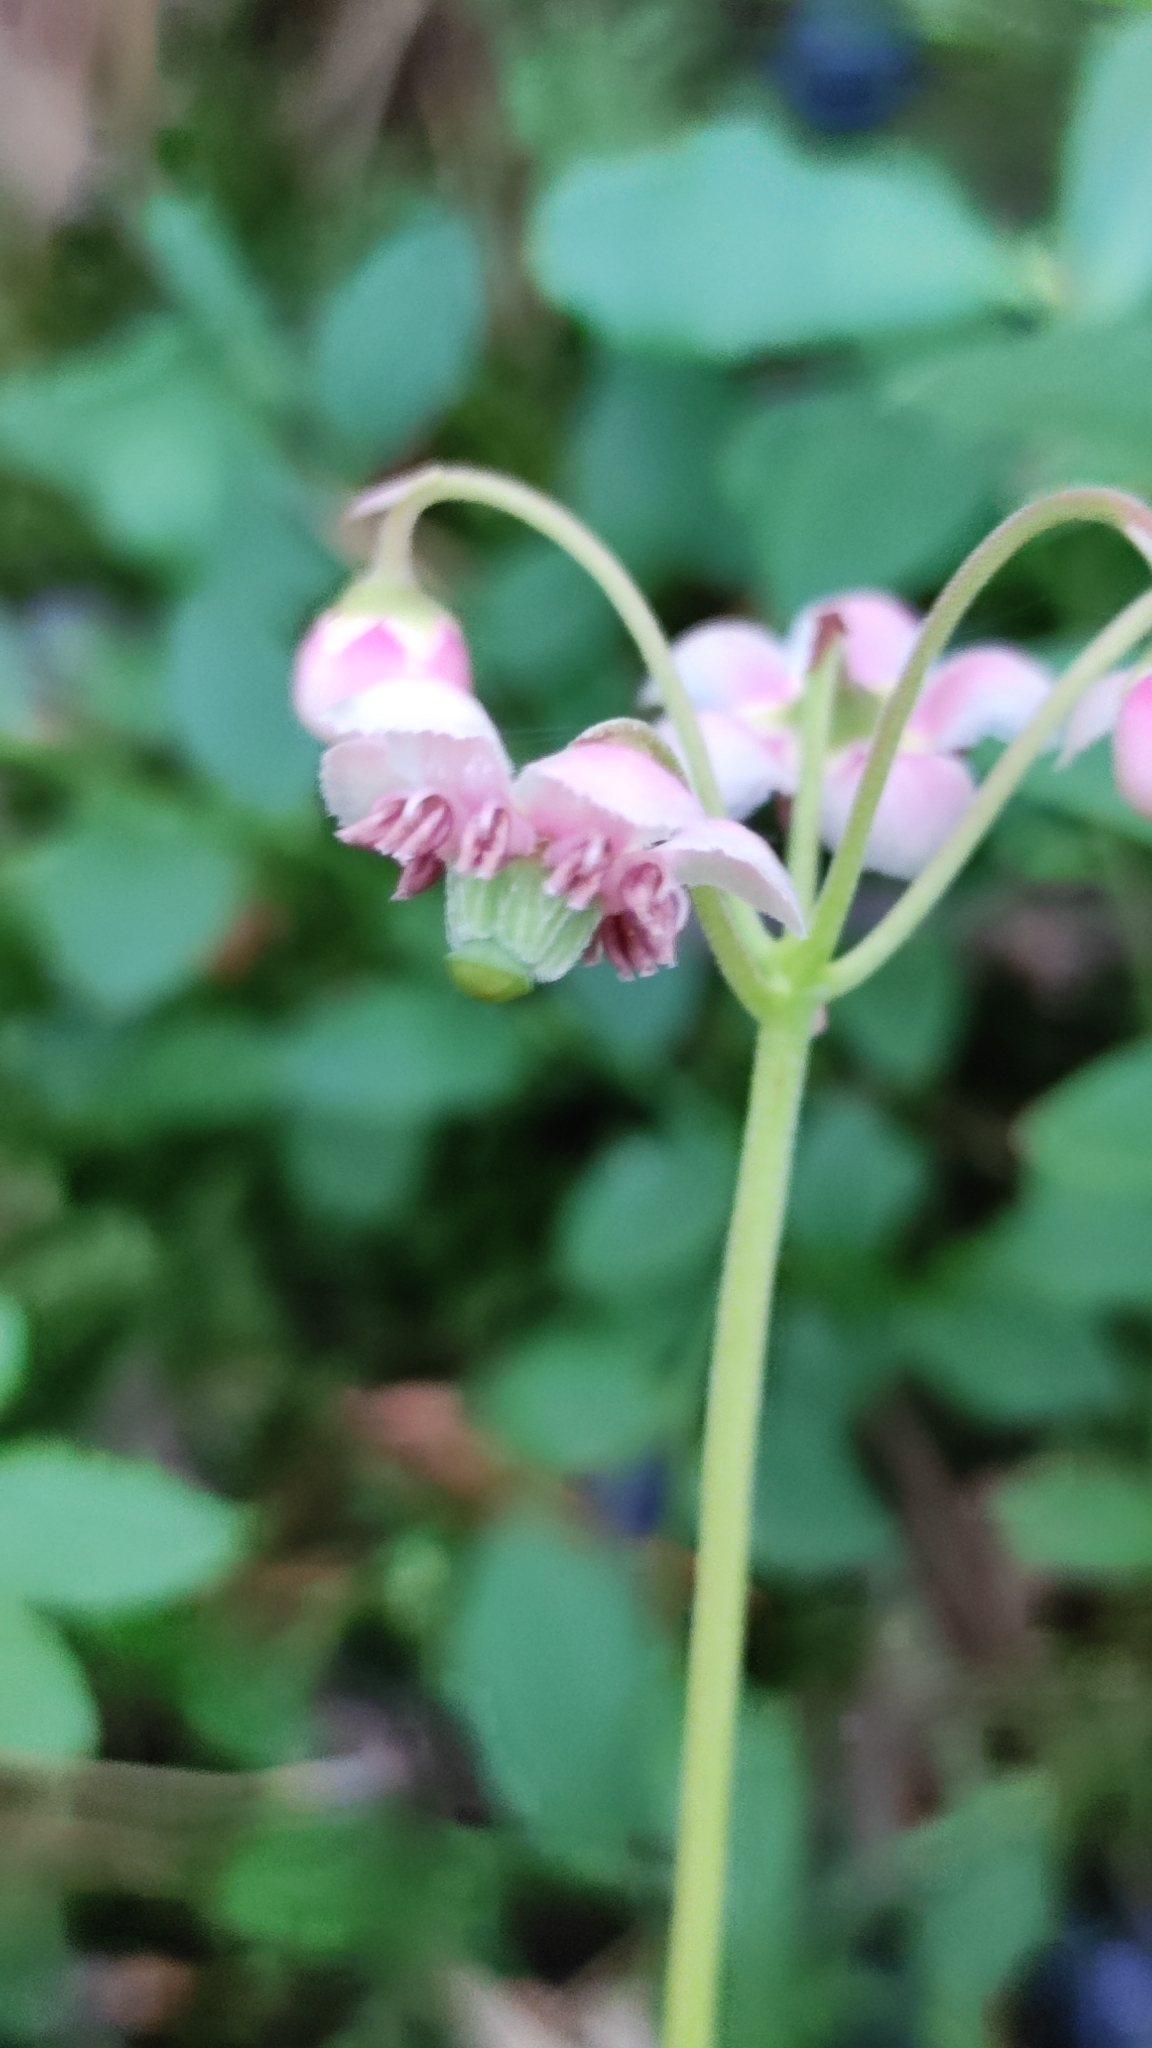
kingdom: Plantae
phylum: Tracheophyta
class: Magnoliopsida
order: Ericales
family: Ericaceae
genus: Chimaphila
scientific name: Chimaphila umbellata
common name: Pipsissewa
